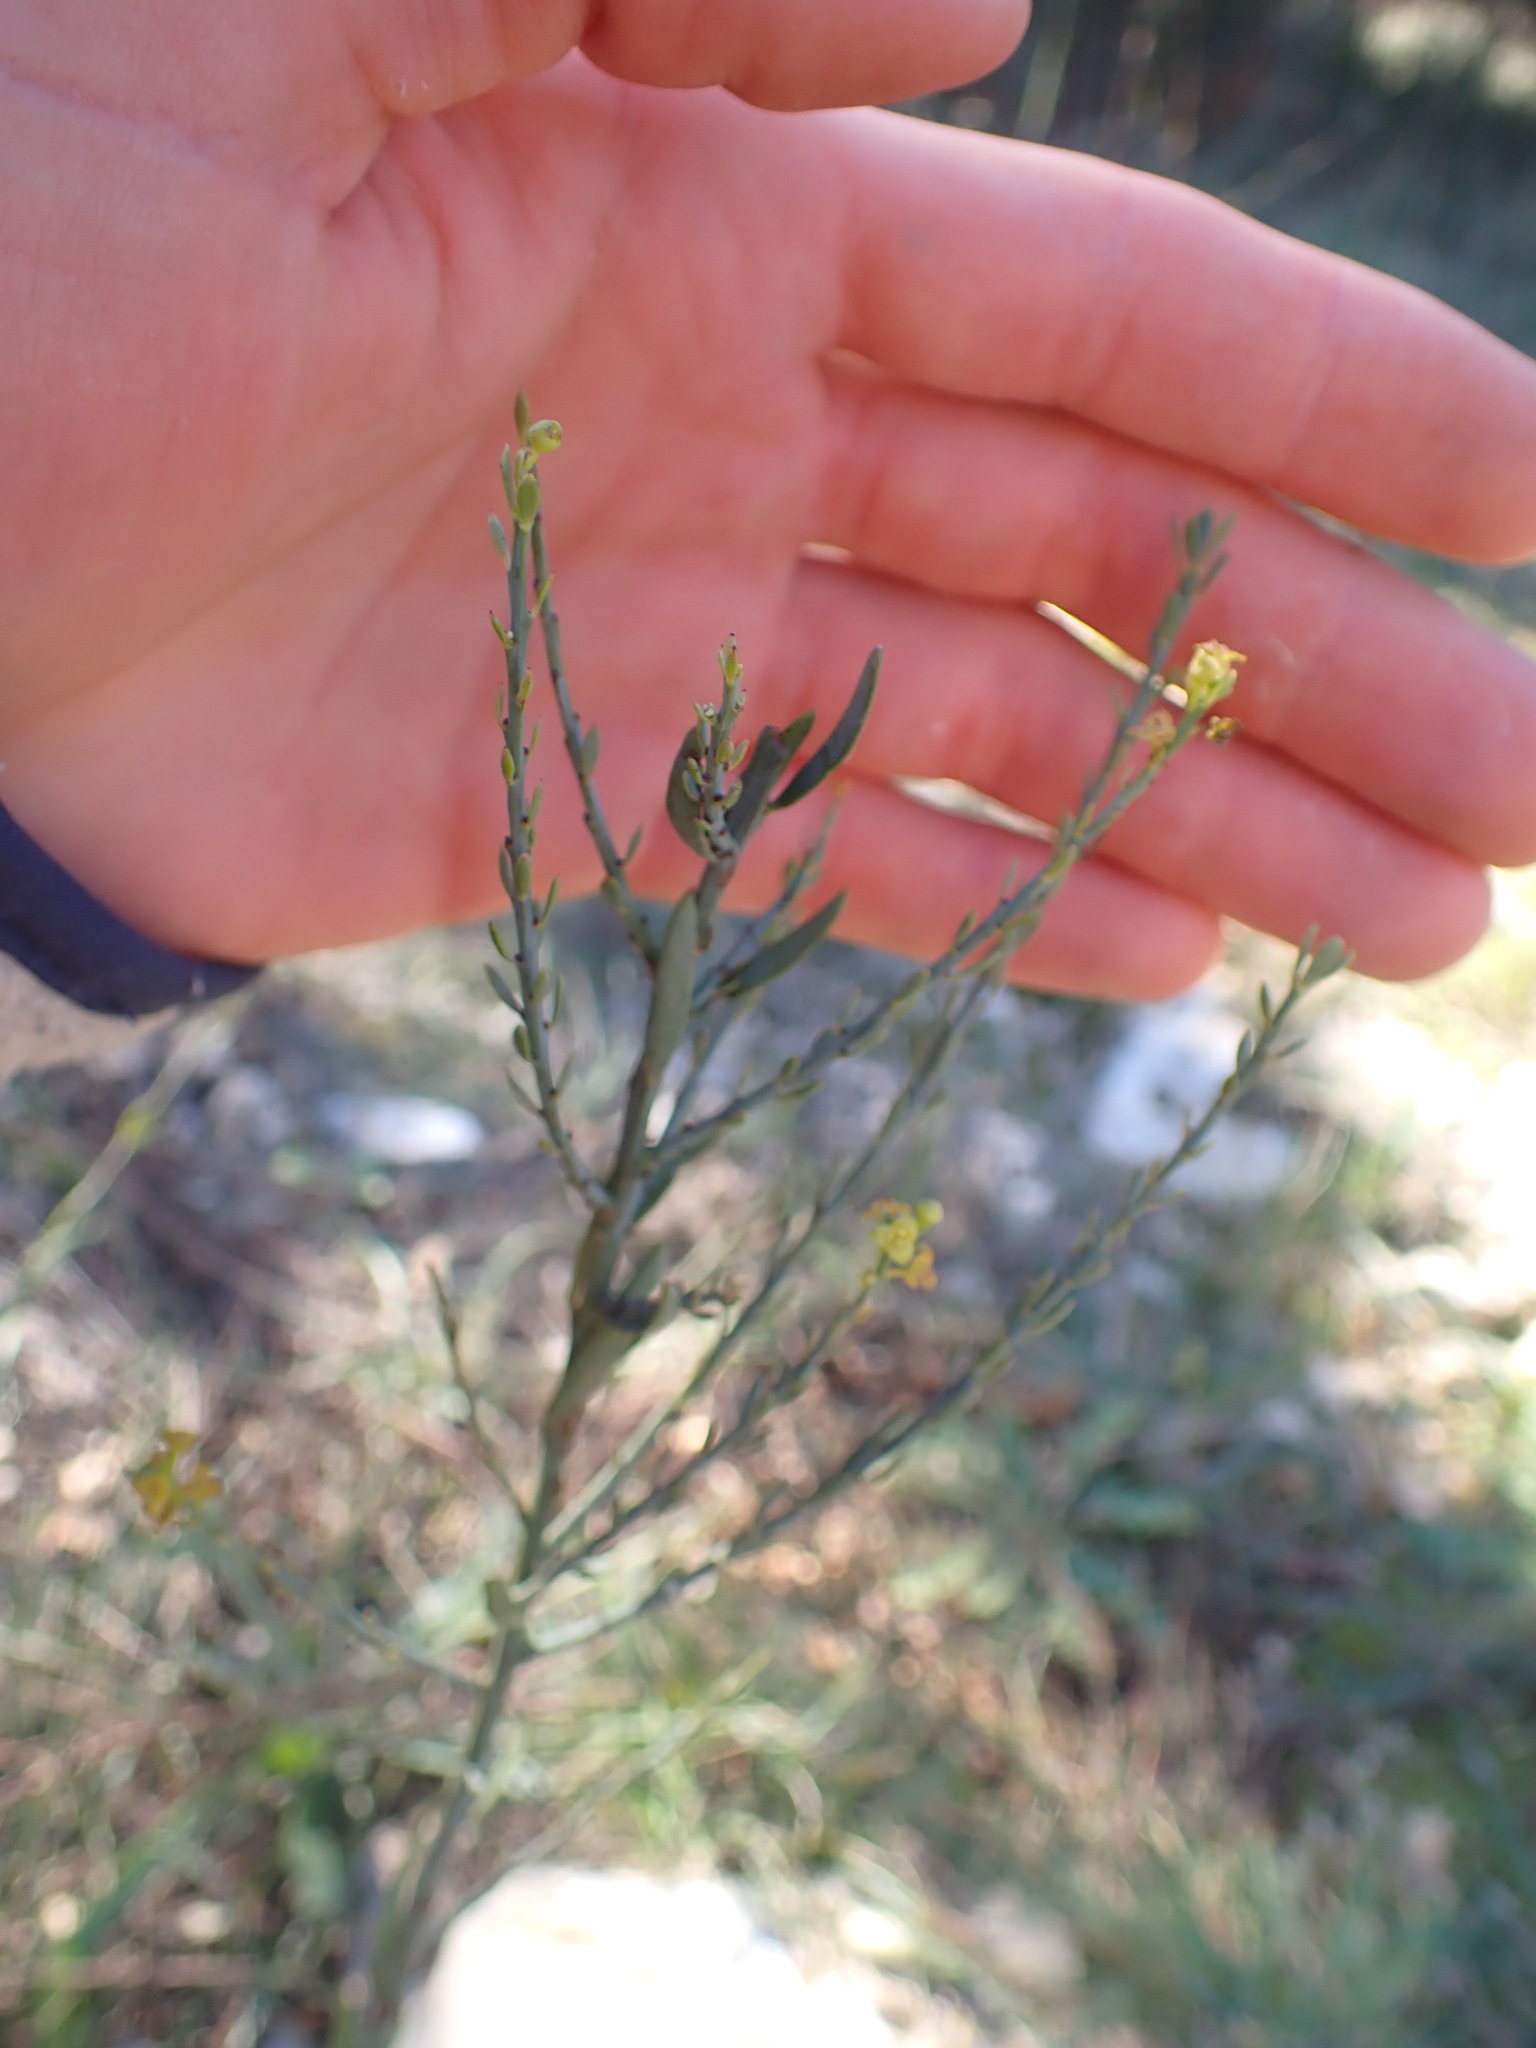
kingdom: Plantae
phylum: Tracheophyta
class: Magnoliopsida
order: Santalales
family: Santalaceae
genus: Osyris
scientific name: Osyris alba
